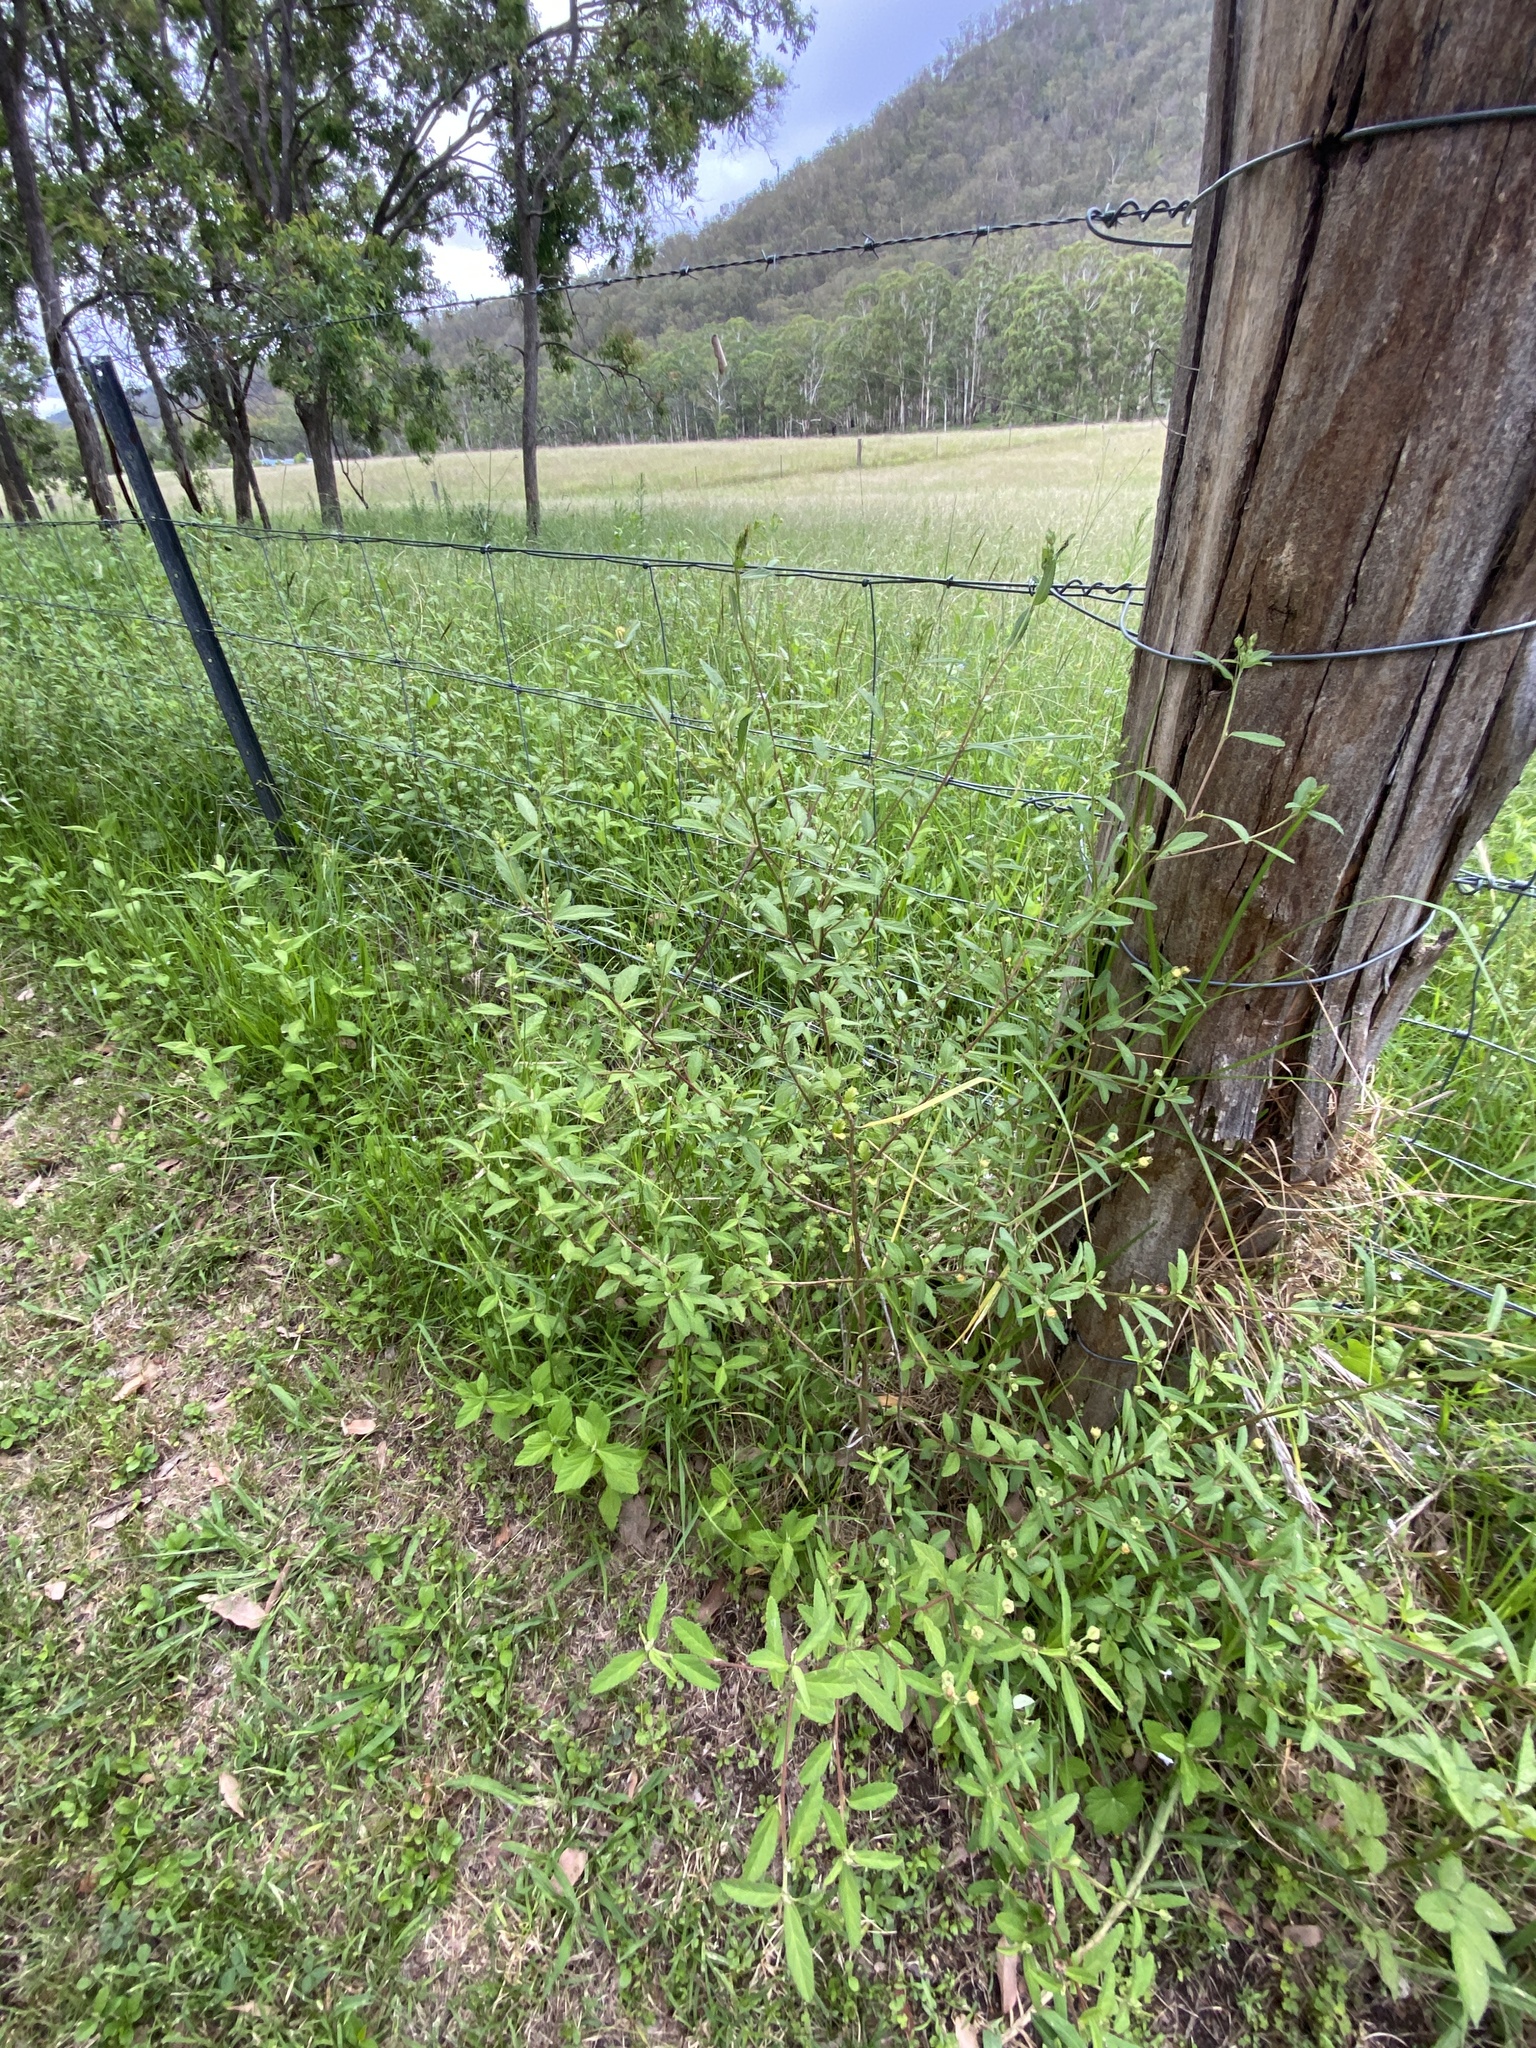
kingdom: Plantae
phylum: Tracheophyta
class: Magnoliopsida
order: Malvales
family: Malvaceae
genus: Sida
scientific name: Sida rhombifolia
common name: Queensland-hemp
